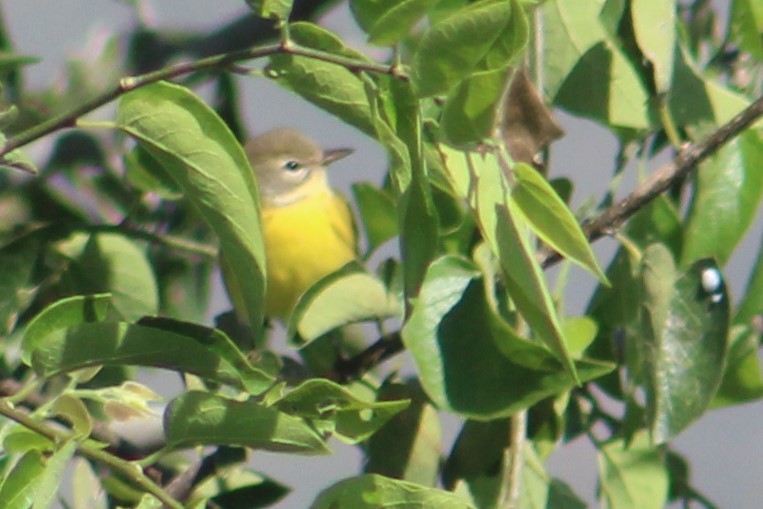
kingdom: Animalia
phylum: Chordata
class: Aves
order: Passeriformes
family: Parulidae
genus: Setophaga
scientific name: Setophaga discolor
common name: Prairie warbler
